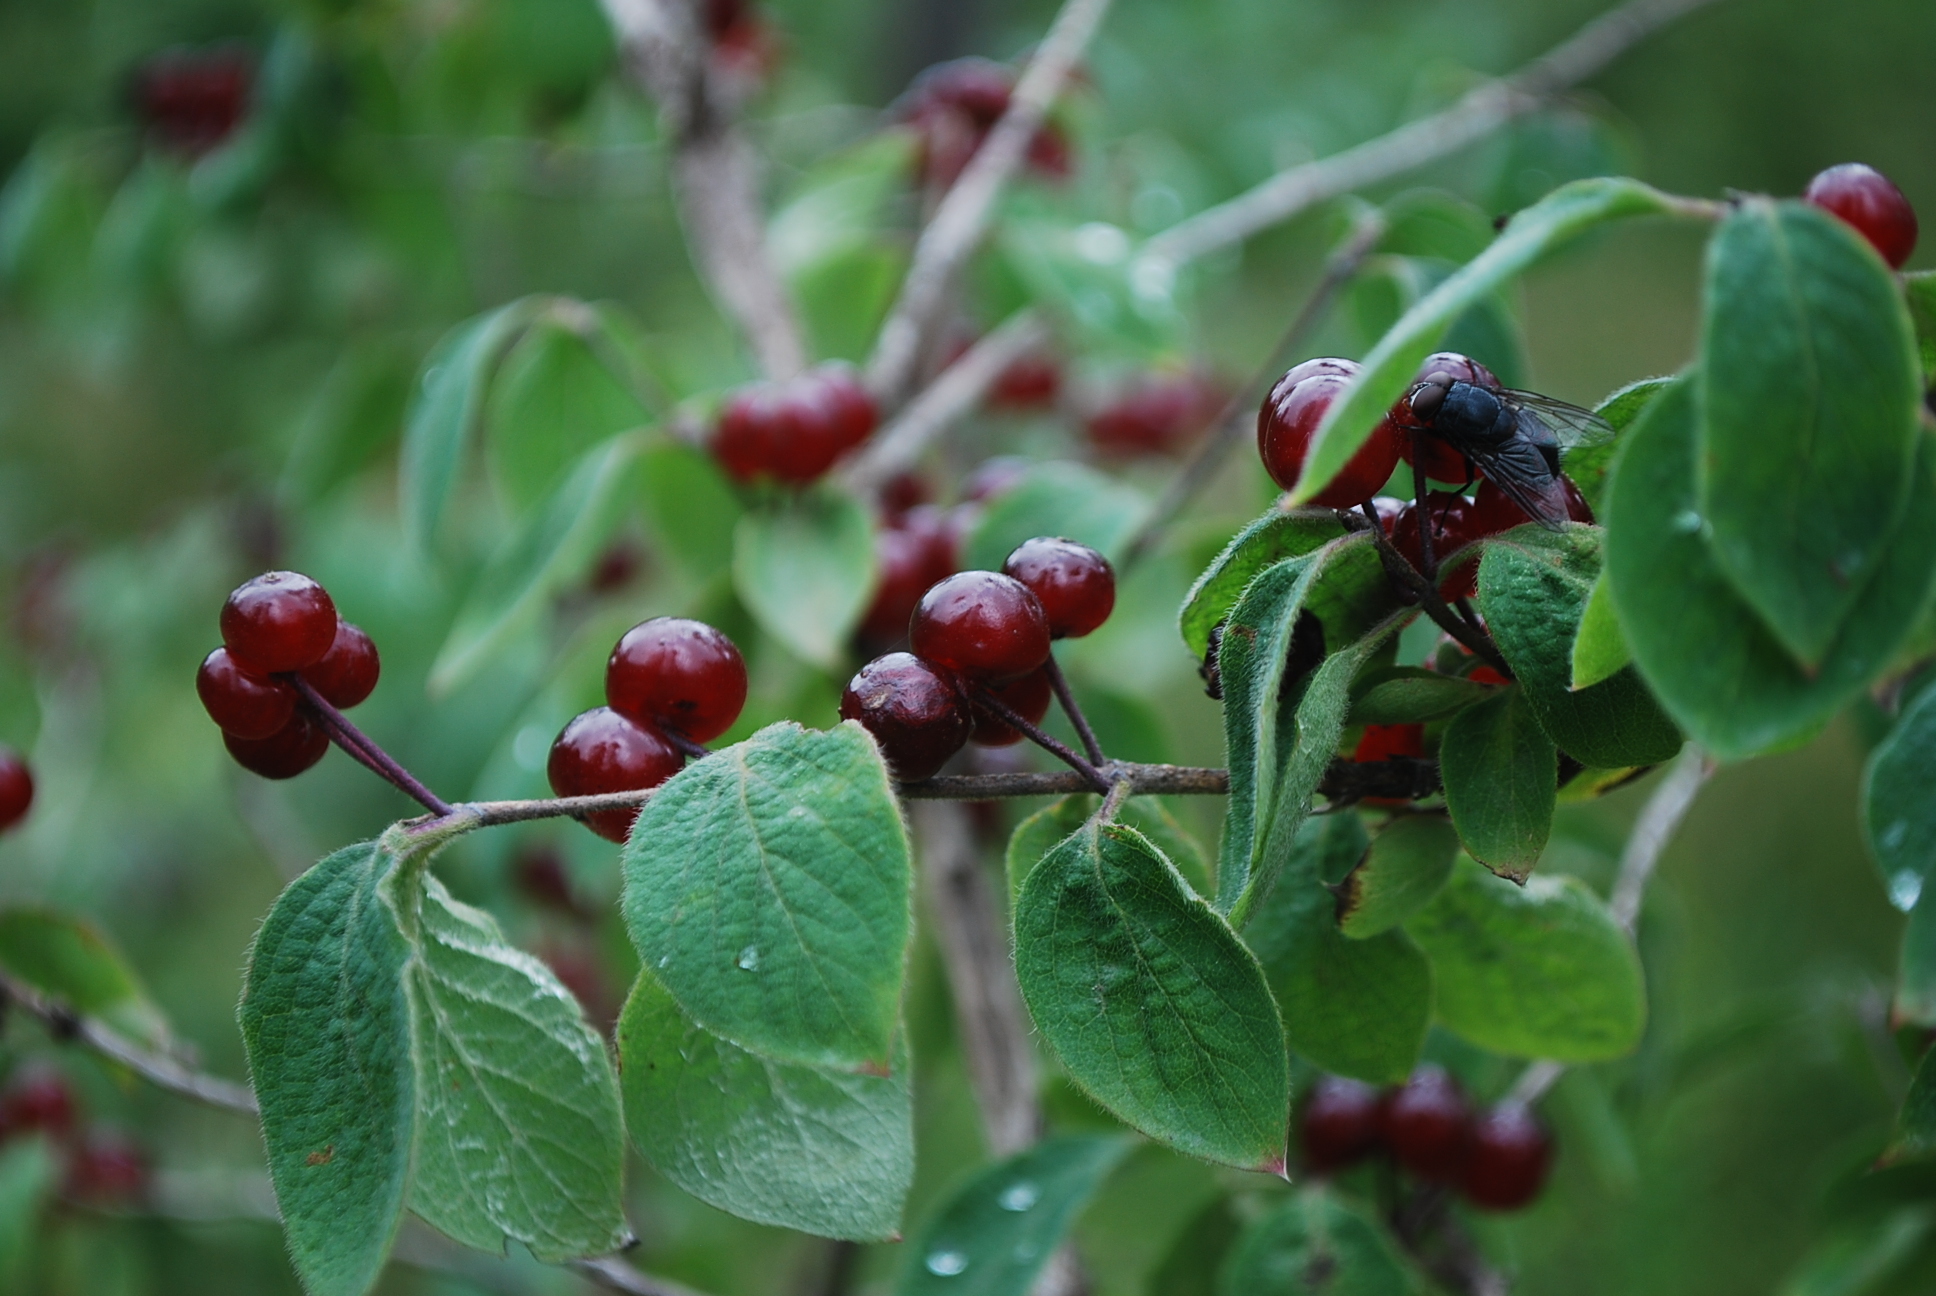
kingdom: Plantae
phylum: Tracheophyta
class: Magnoliopsida
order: Dipsacales
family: Caprifoliaceae
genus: Lonicera
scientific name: Lonicera xylosteum
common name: Fly honeysuckle
